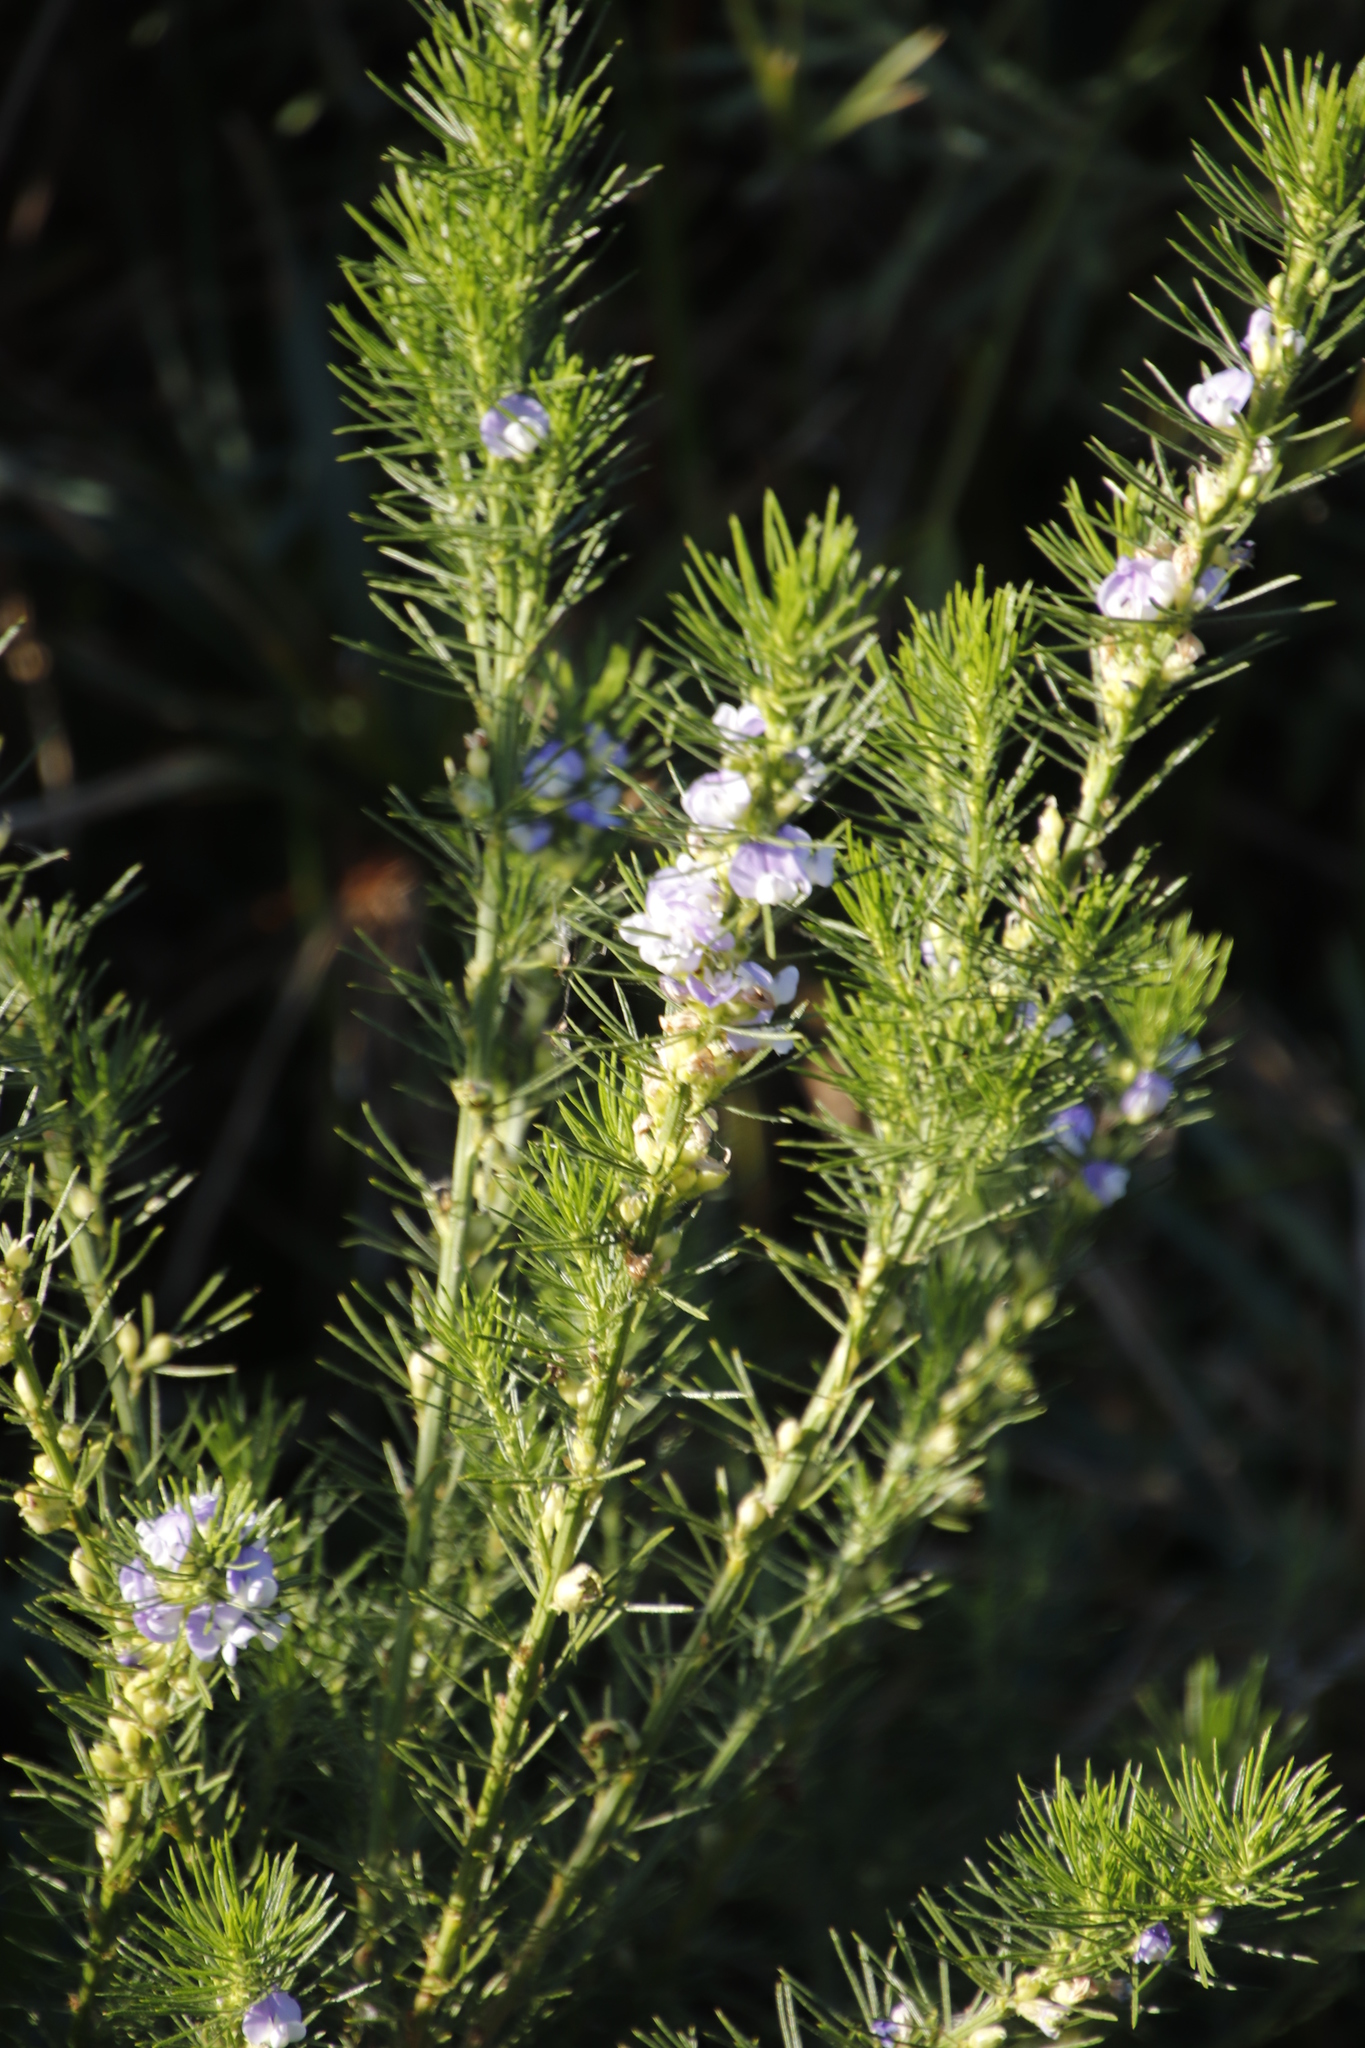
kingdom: Plantae
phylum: Tracheophyta
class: Magnoliopsida
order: Fabales
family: Fabaceae
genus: Psoralea
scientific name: Psoralea pinnata
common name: African scurfpea
